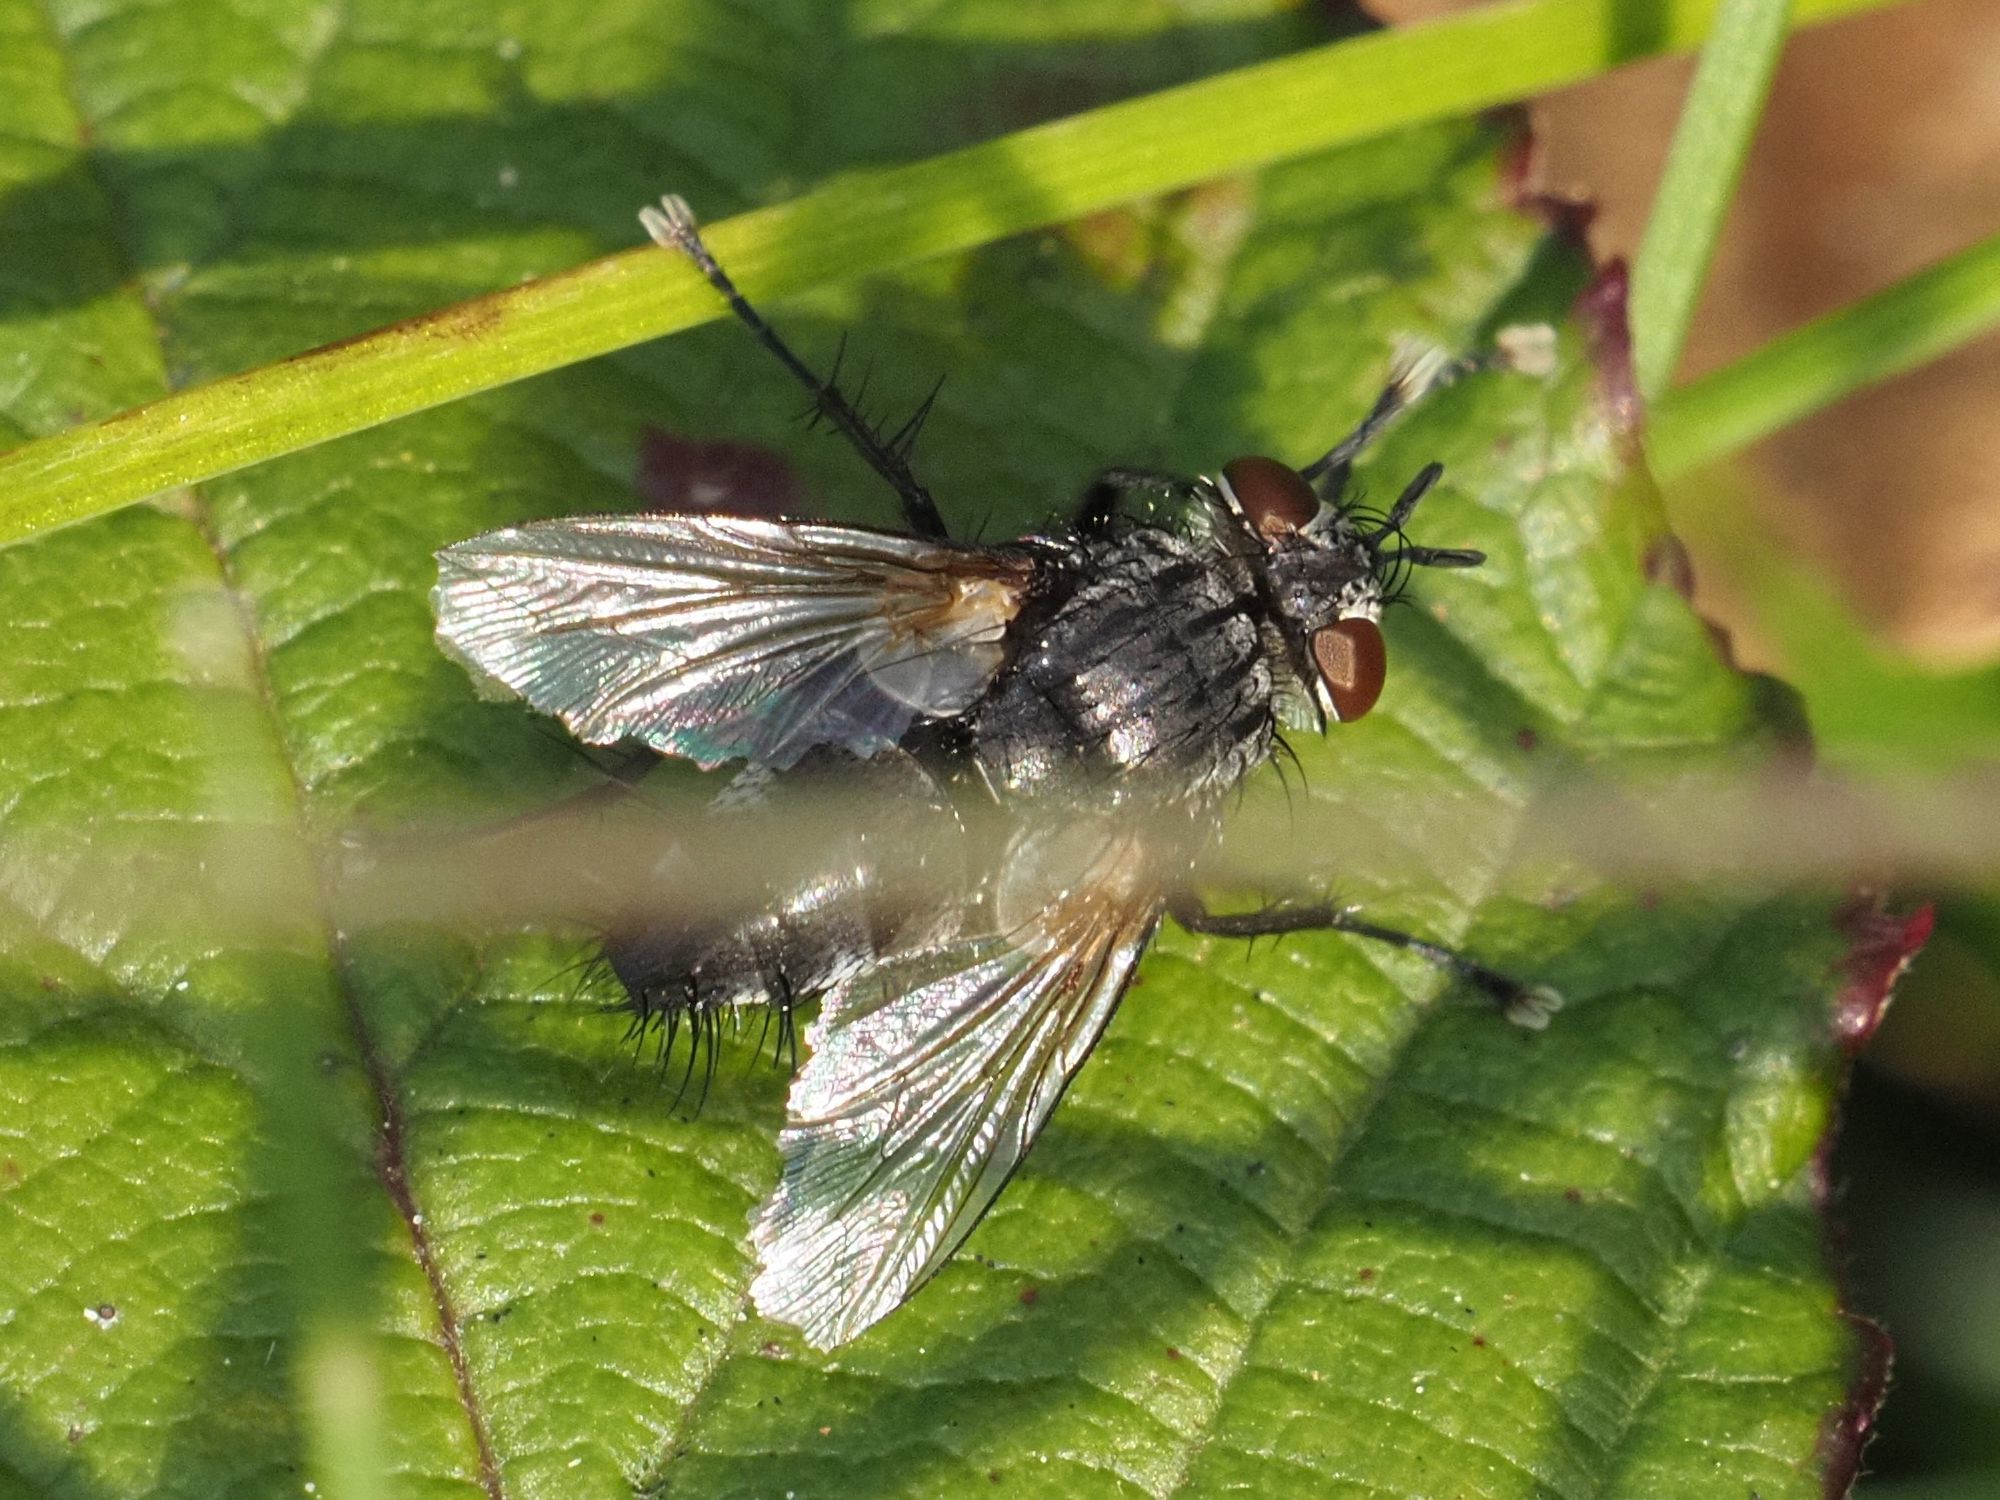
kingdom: Animalia
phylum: Arthropoda
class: Insecta
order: Diptera
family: Tachinidae
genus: Voria
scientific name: Voria ruralis
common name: Parasitic fly
